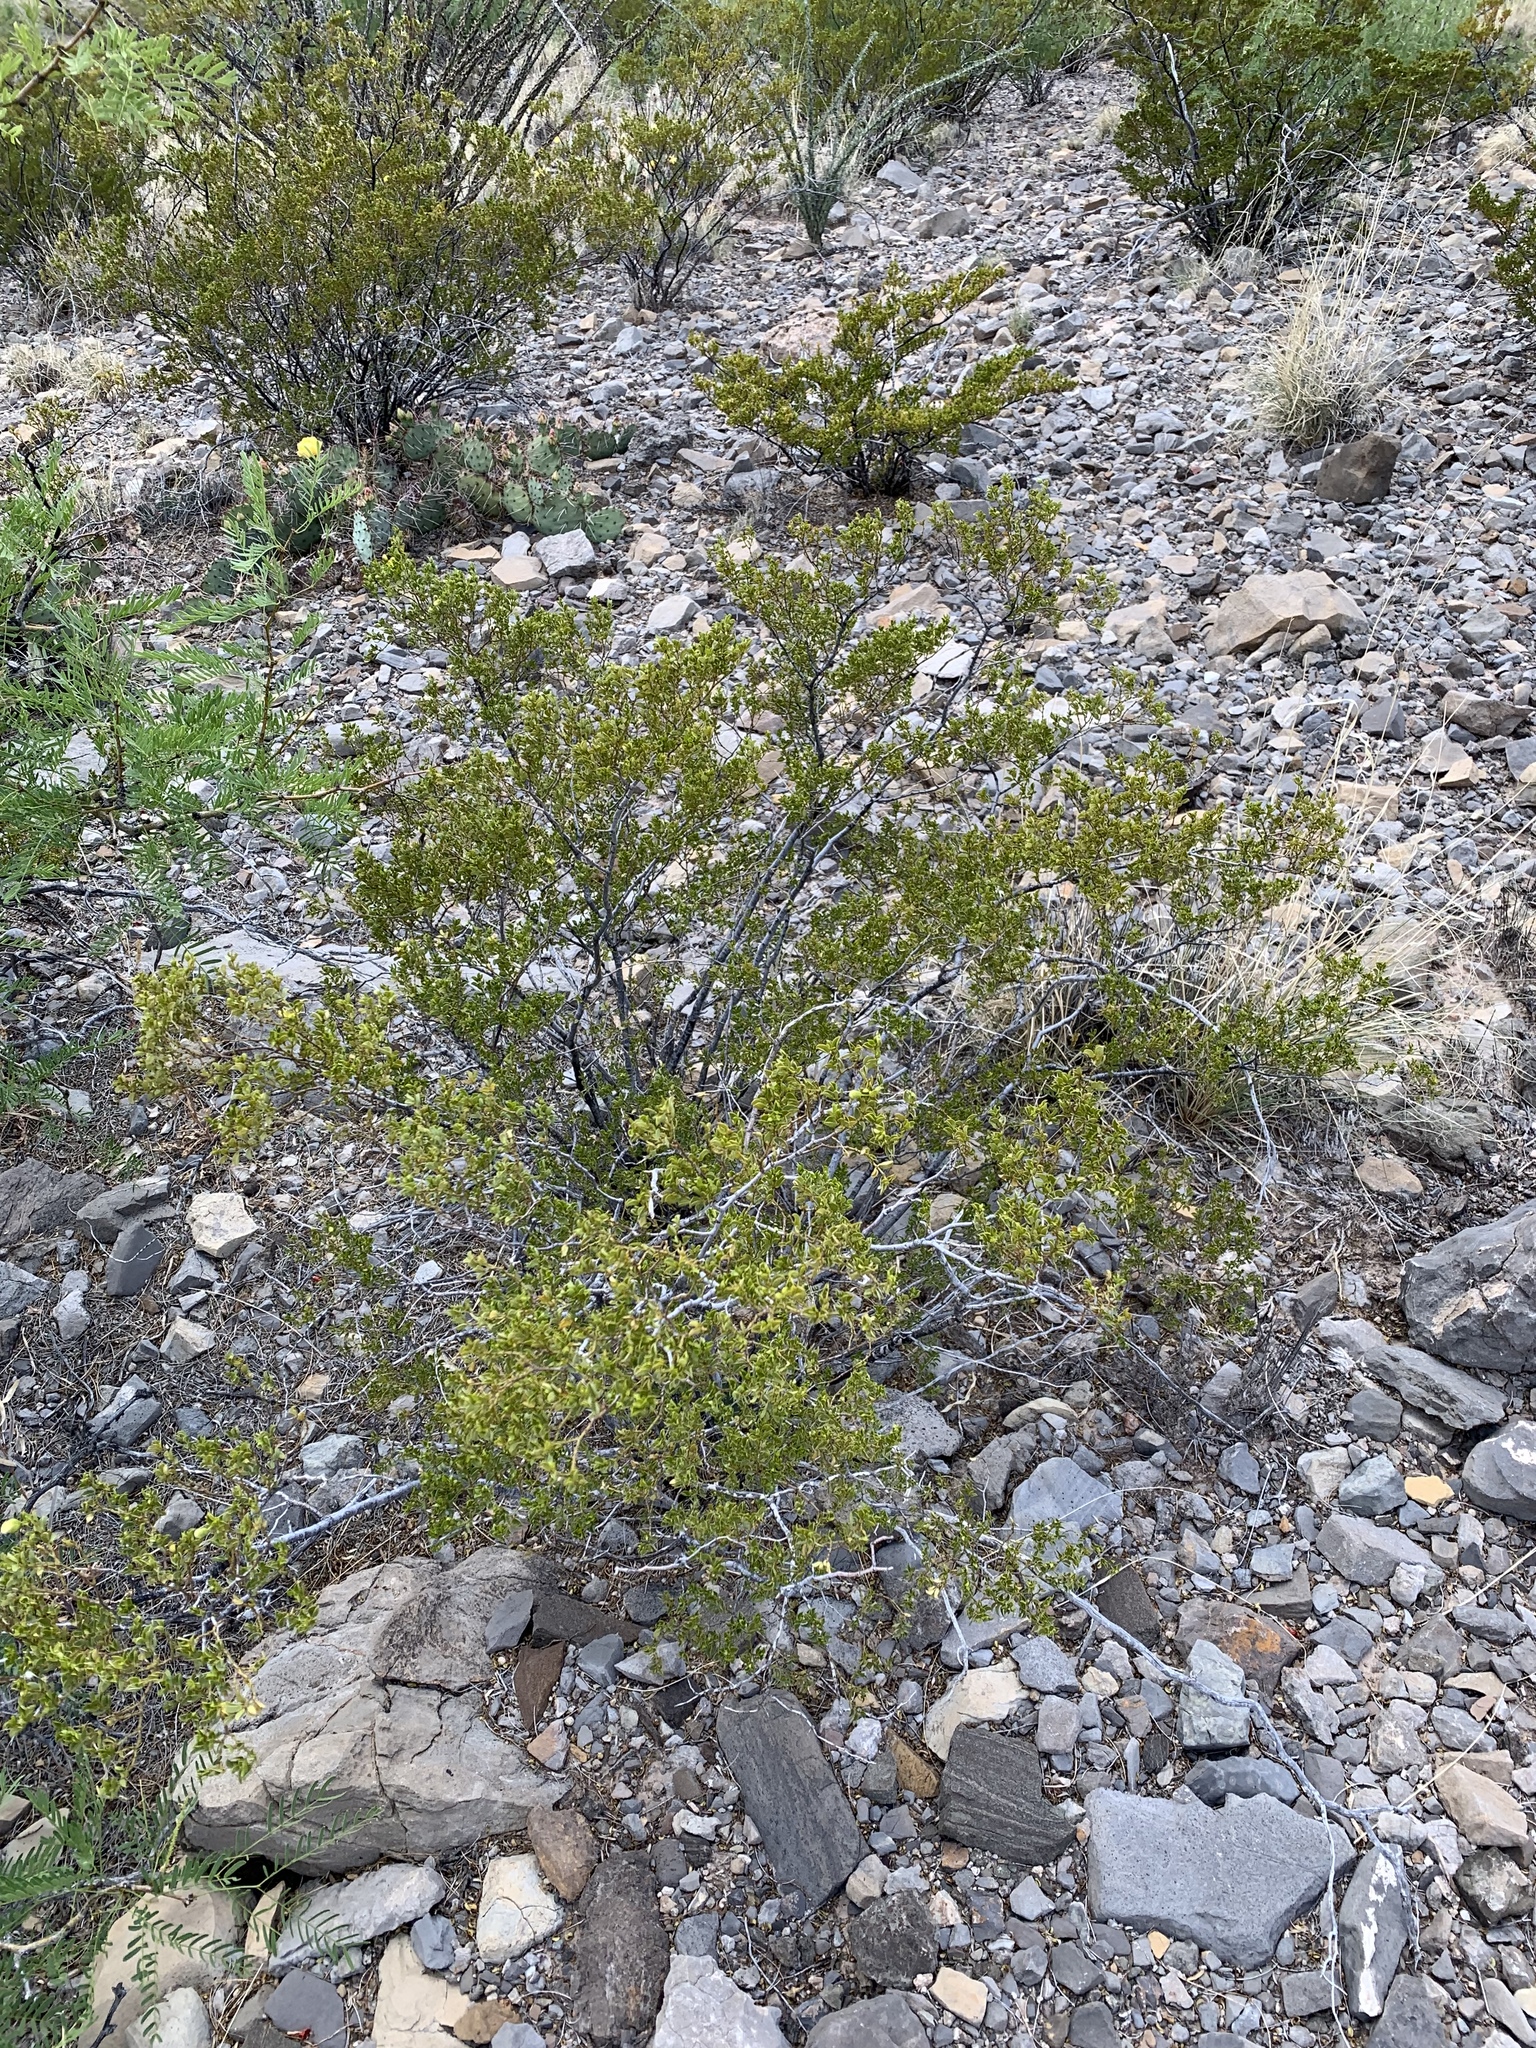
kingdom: Plantae
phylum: Tracheophyta
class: Magnoliopsida
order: Zygophyllales
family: Zygophyllaceae
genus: Larrea
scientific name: Larrea tridentata
